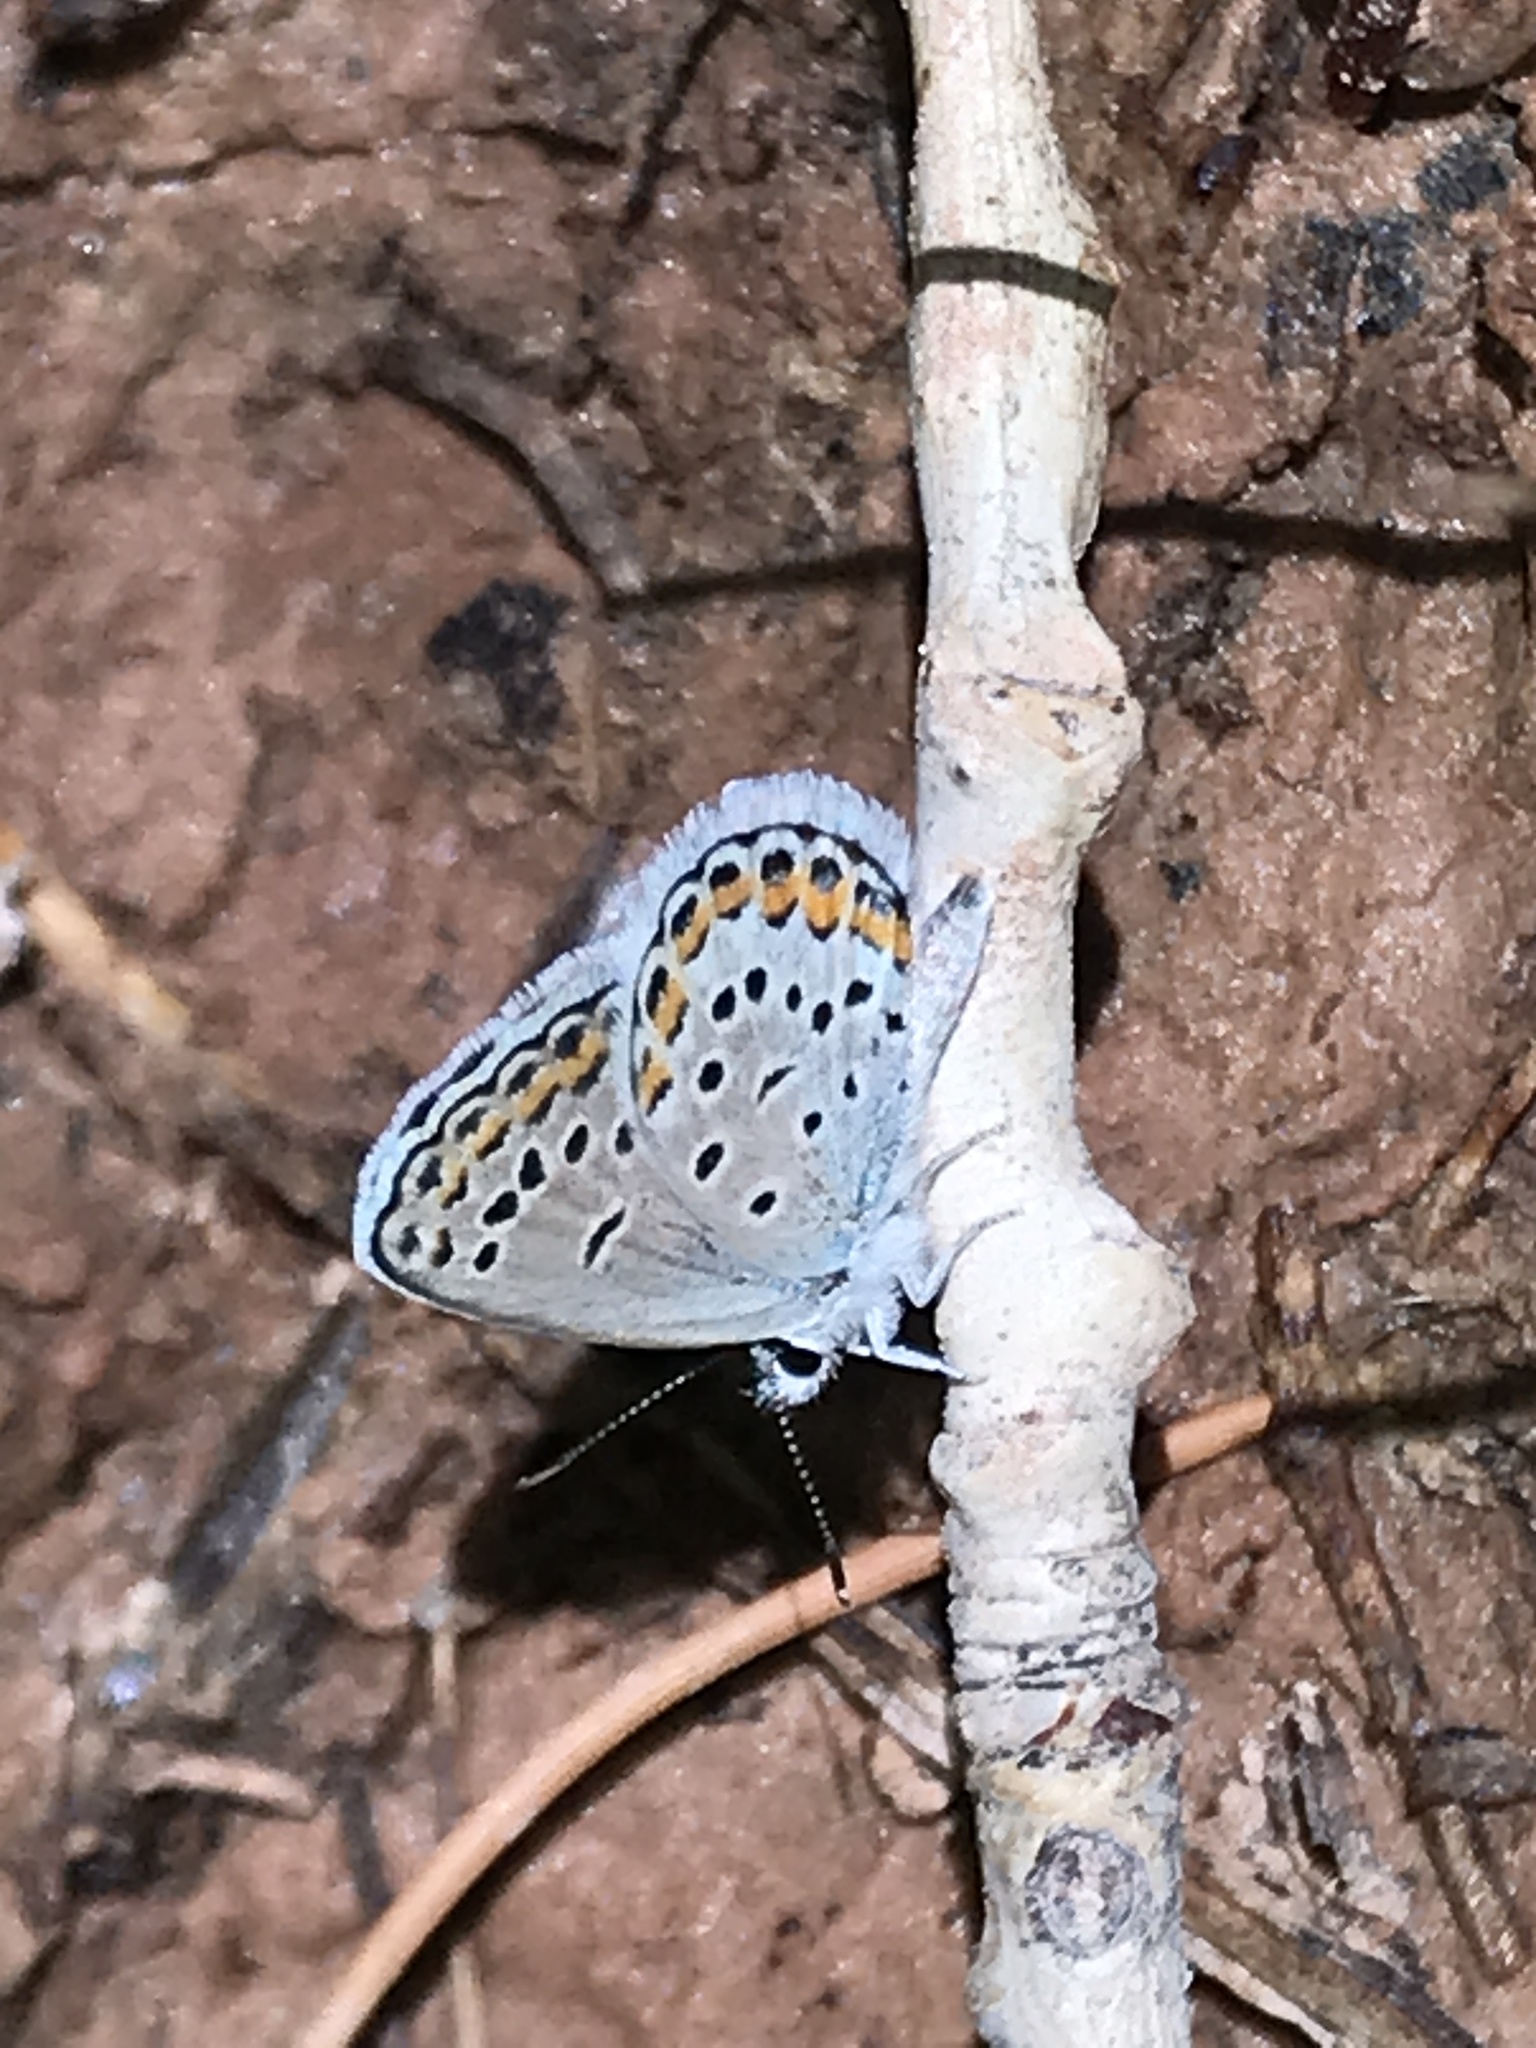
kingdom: Animalia
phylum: Arthropoda
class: Insecta
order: Lepidoptera
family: Lycaenidae
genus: Lycaeides
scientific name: Lycaeides melissa
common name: Melissa blue
